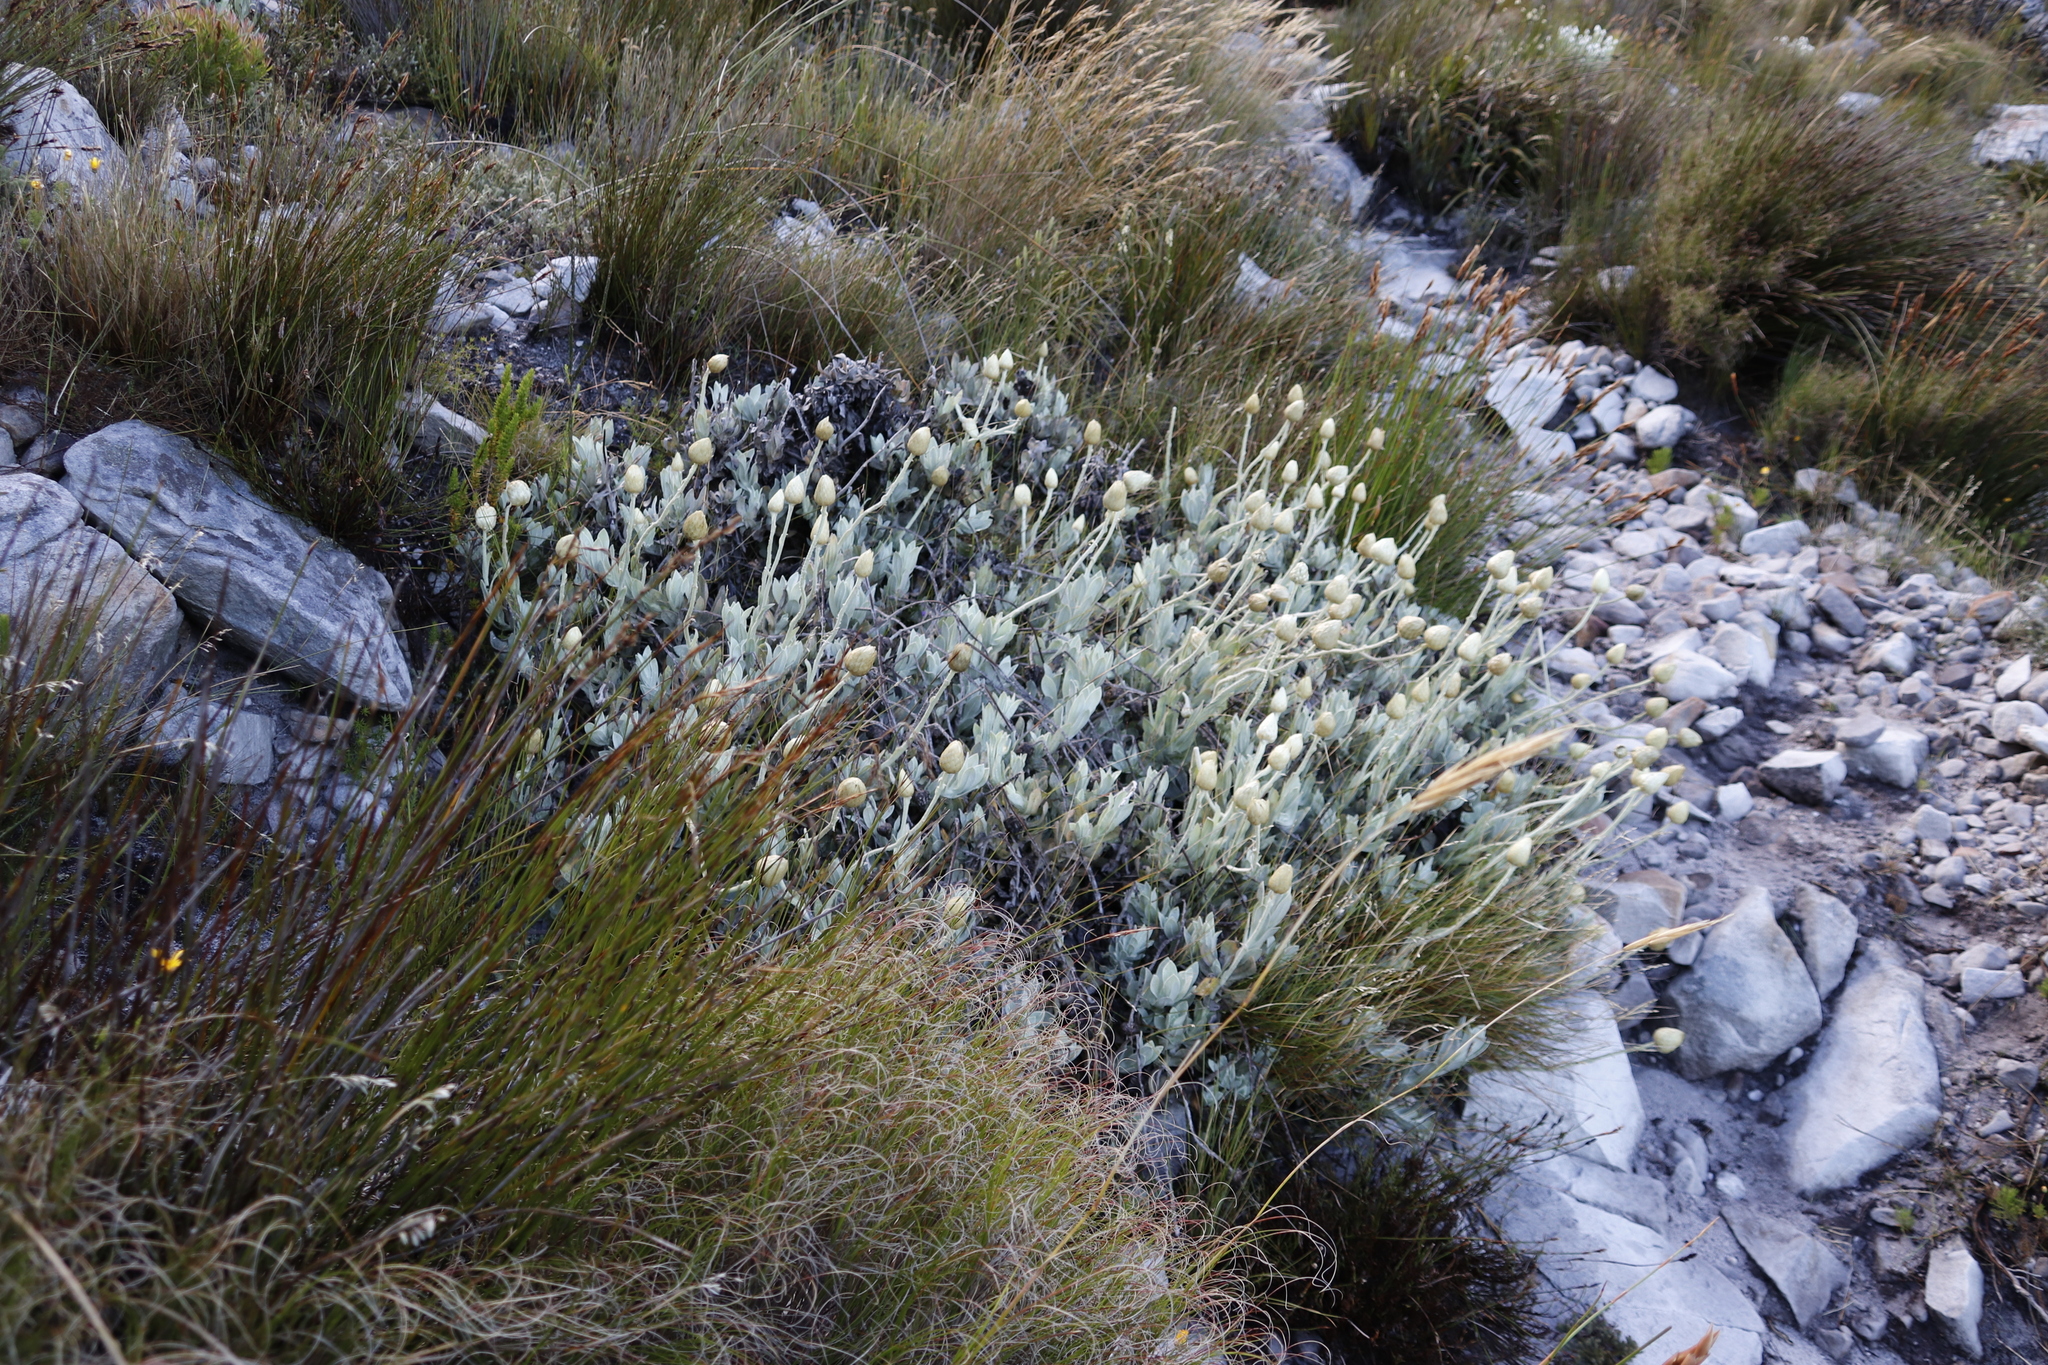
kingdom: Plantae
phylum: Tracheophyta
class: Magnoliopsida
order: Asterales
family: Asteraceae
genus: Syncarpha
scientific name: Syncarpha speciosissima
